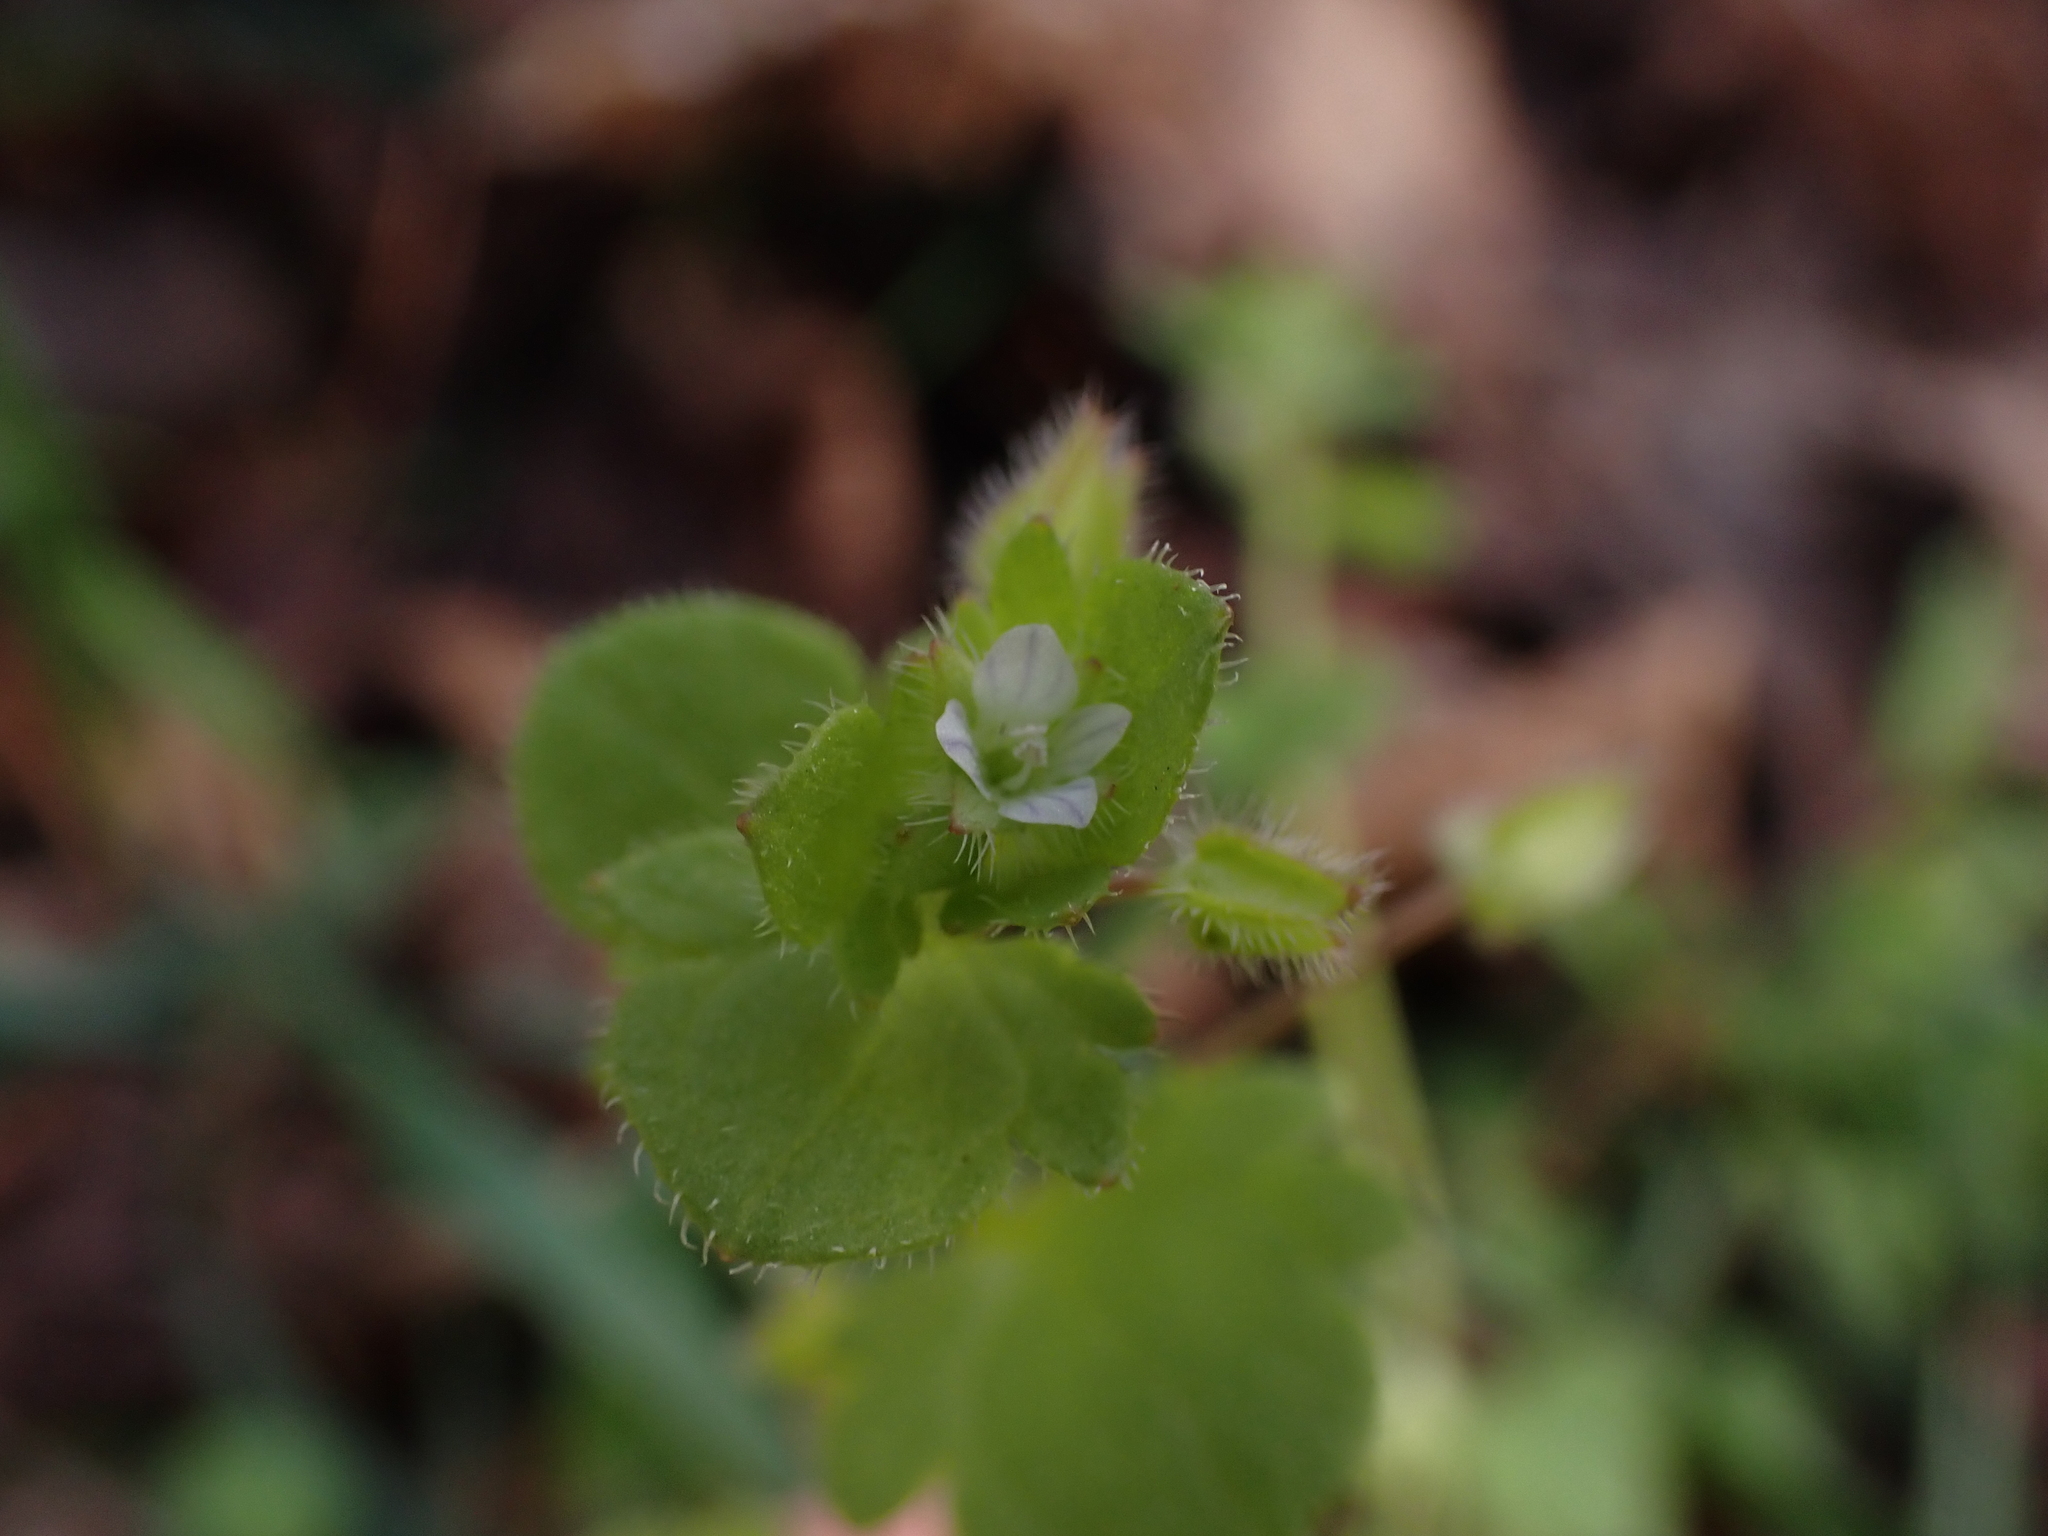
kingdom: Plantae
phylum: Tracheophyta
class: Magnoliopsida
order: Lamiales
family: Plantaginaceae
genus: Veronica
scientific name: Veronica sublobata
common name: False ivy-leaved speedwell
